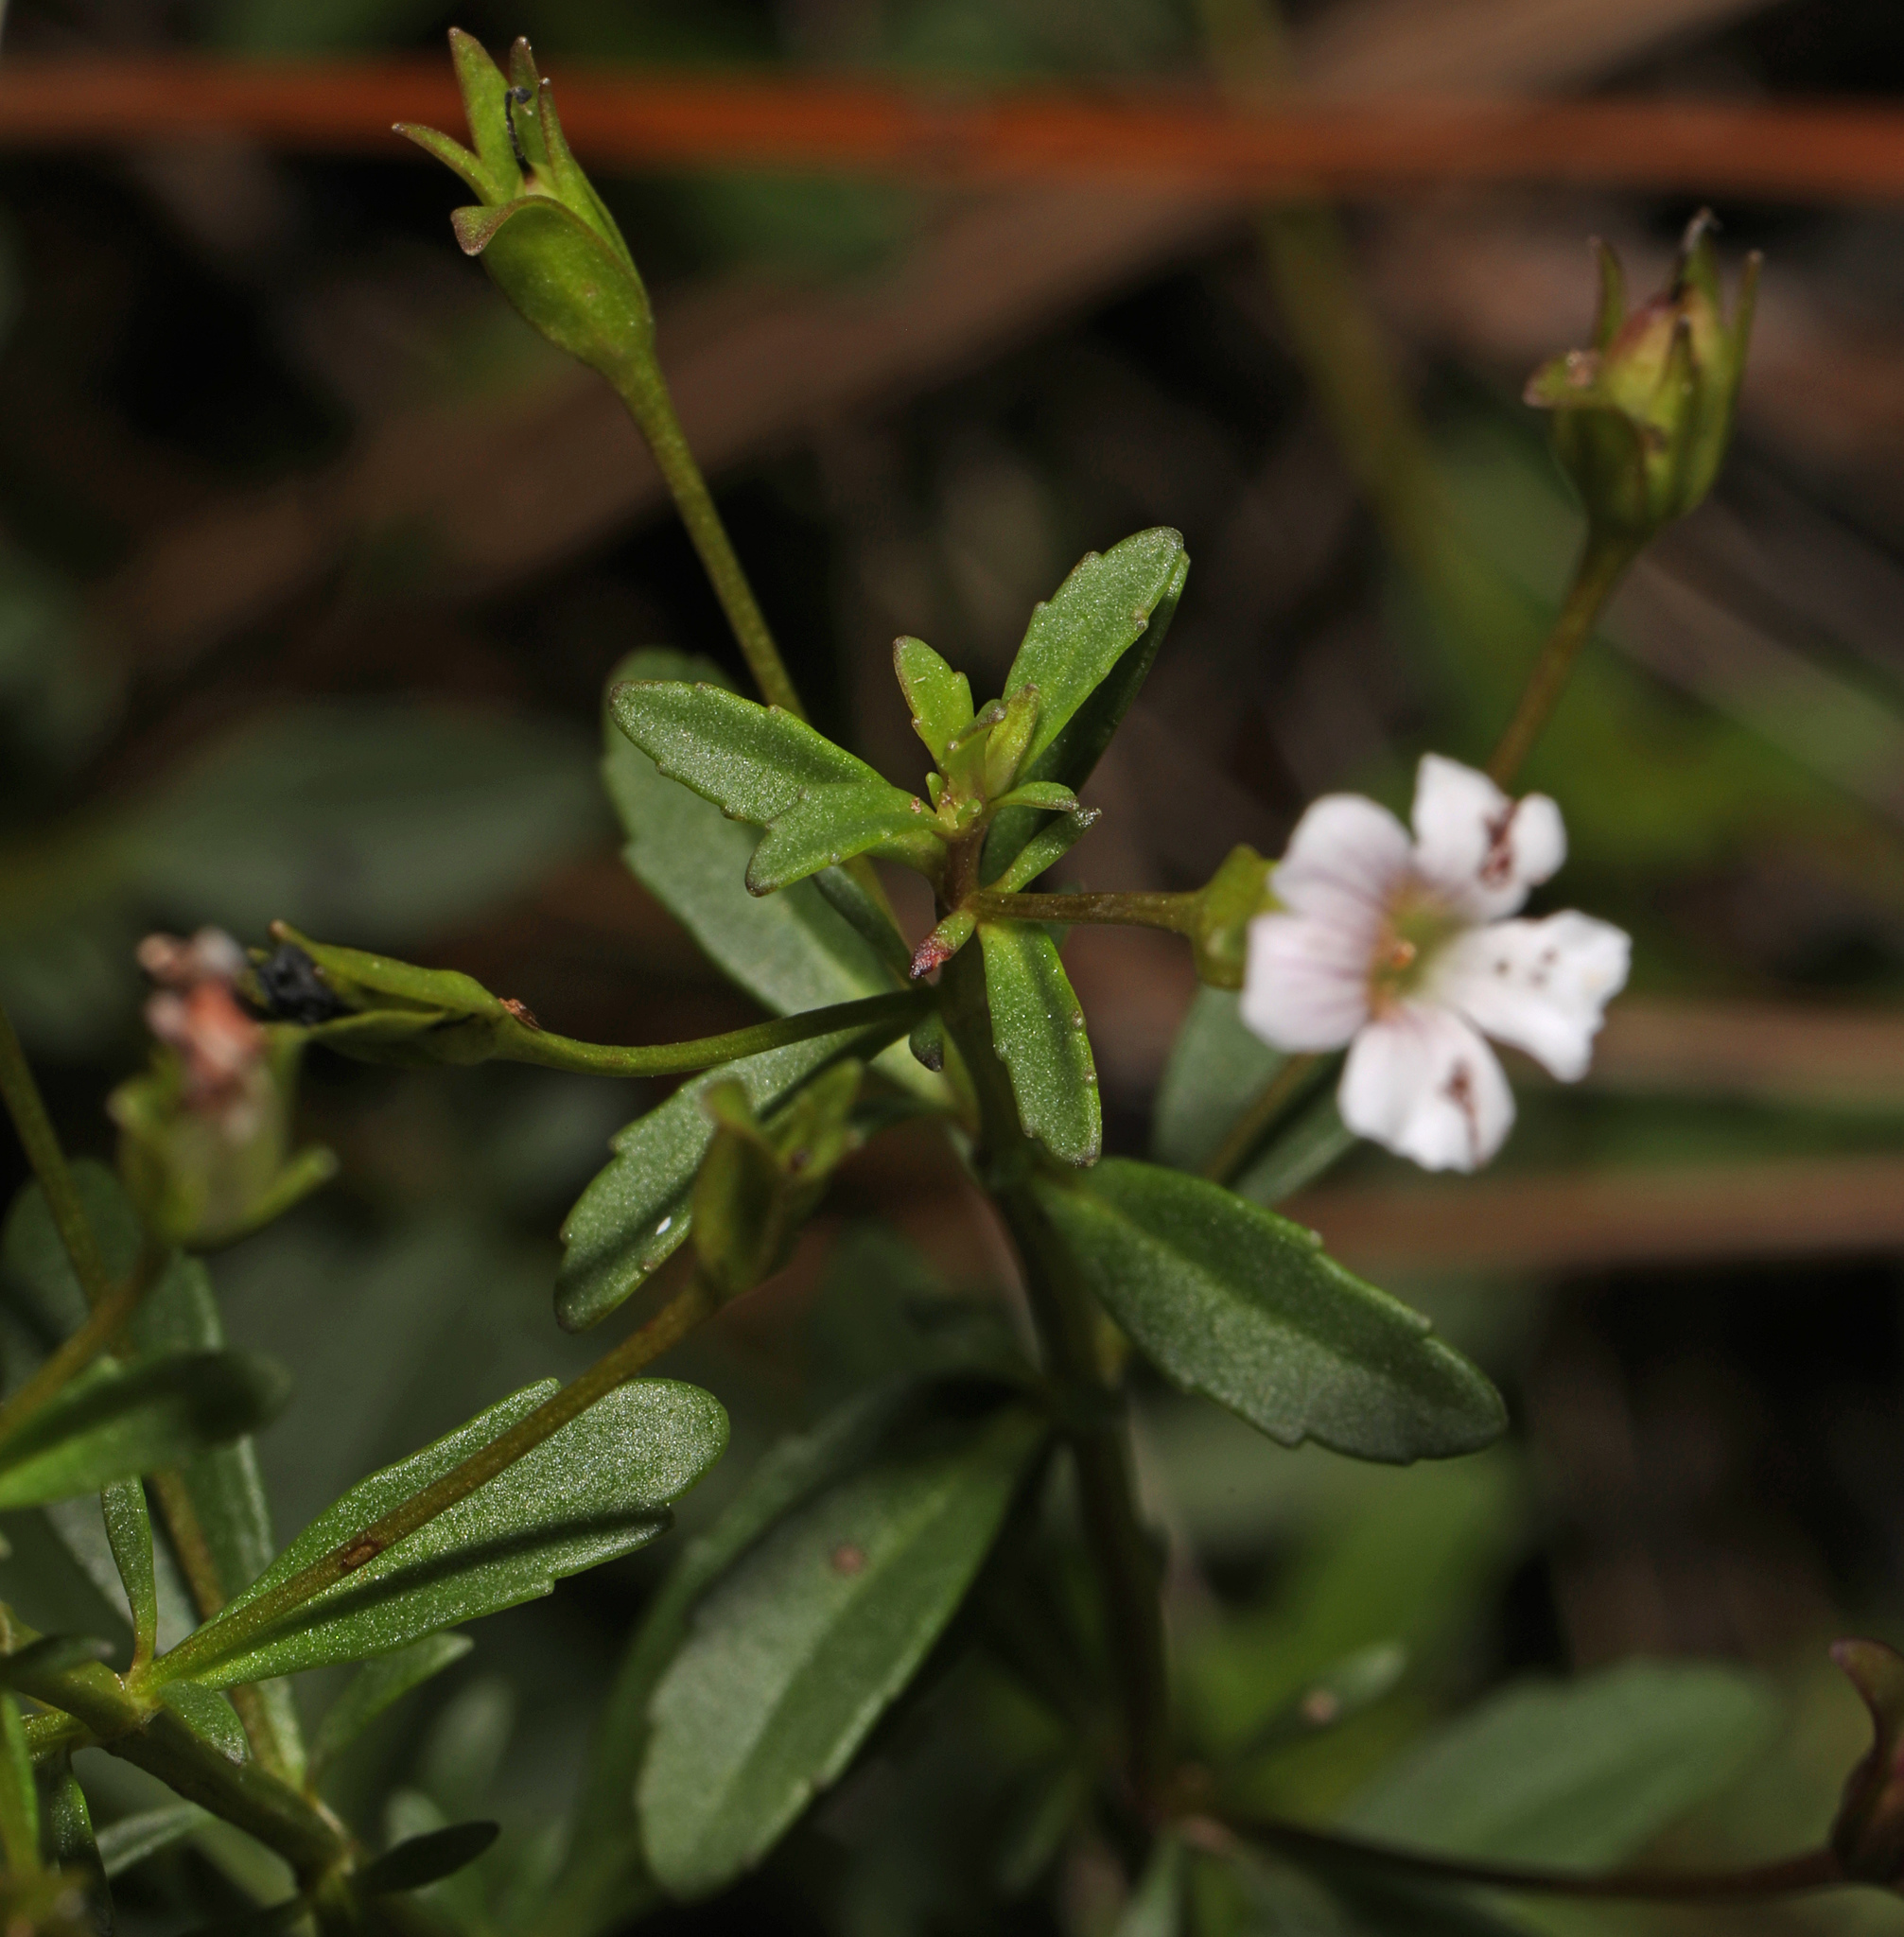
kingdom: Plantae
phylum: Tracheophyta
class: Magnoliopsida
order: Lamiales
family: Scrophulariaceae
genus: Capraria
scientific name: Capraria biflora
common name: Goatweed
